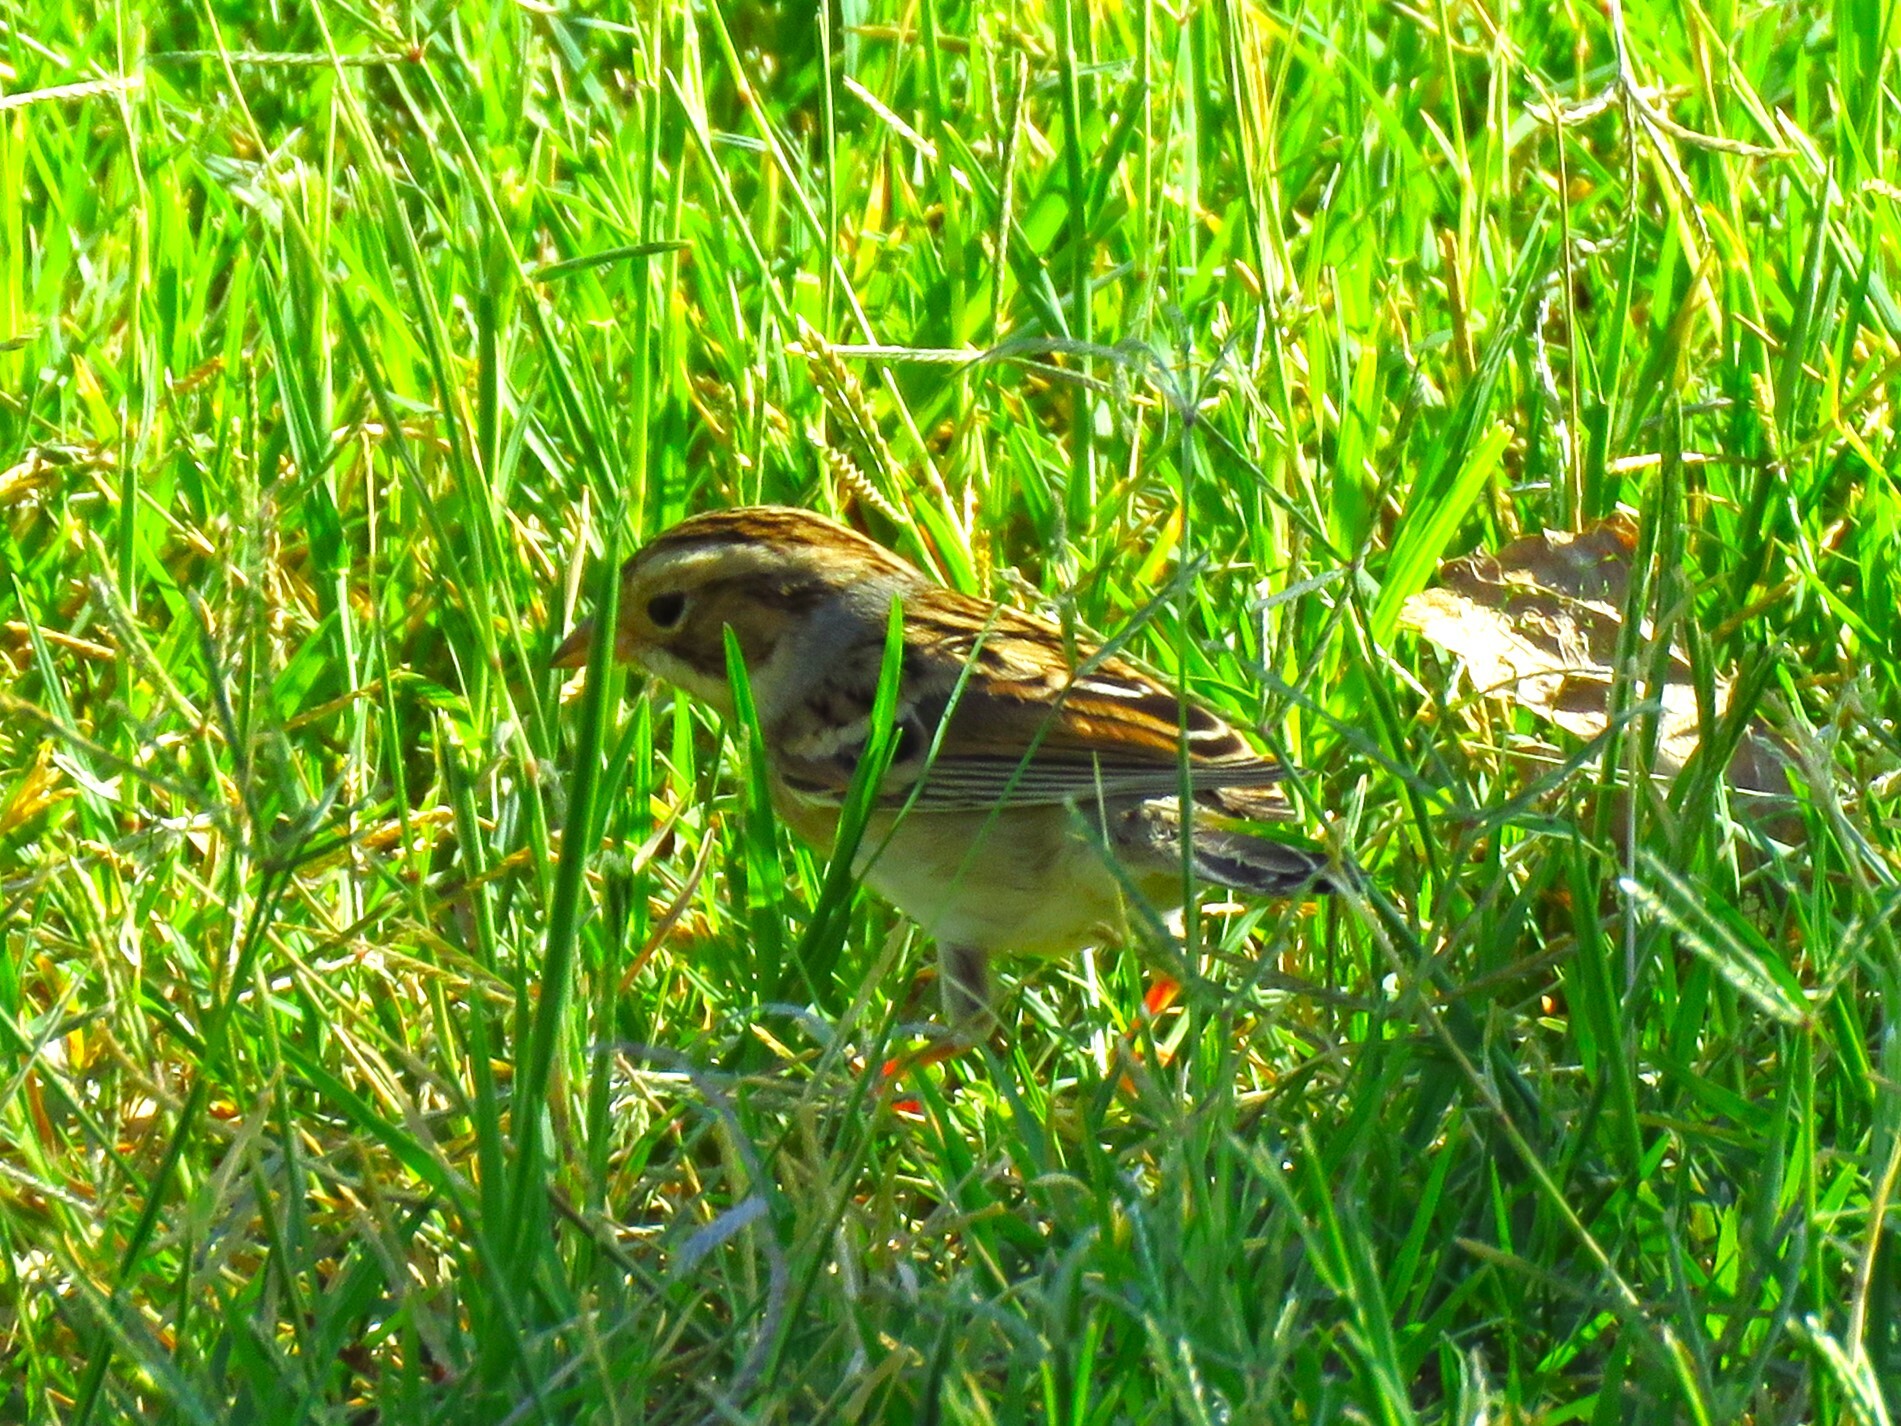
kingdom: Animalia
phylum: Chordata
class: Aves
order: Passeriformes
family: Passerellidae
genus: Spizella
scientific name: Spizella pallida
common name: Clay-colored sparrow
